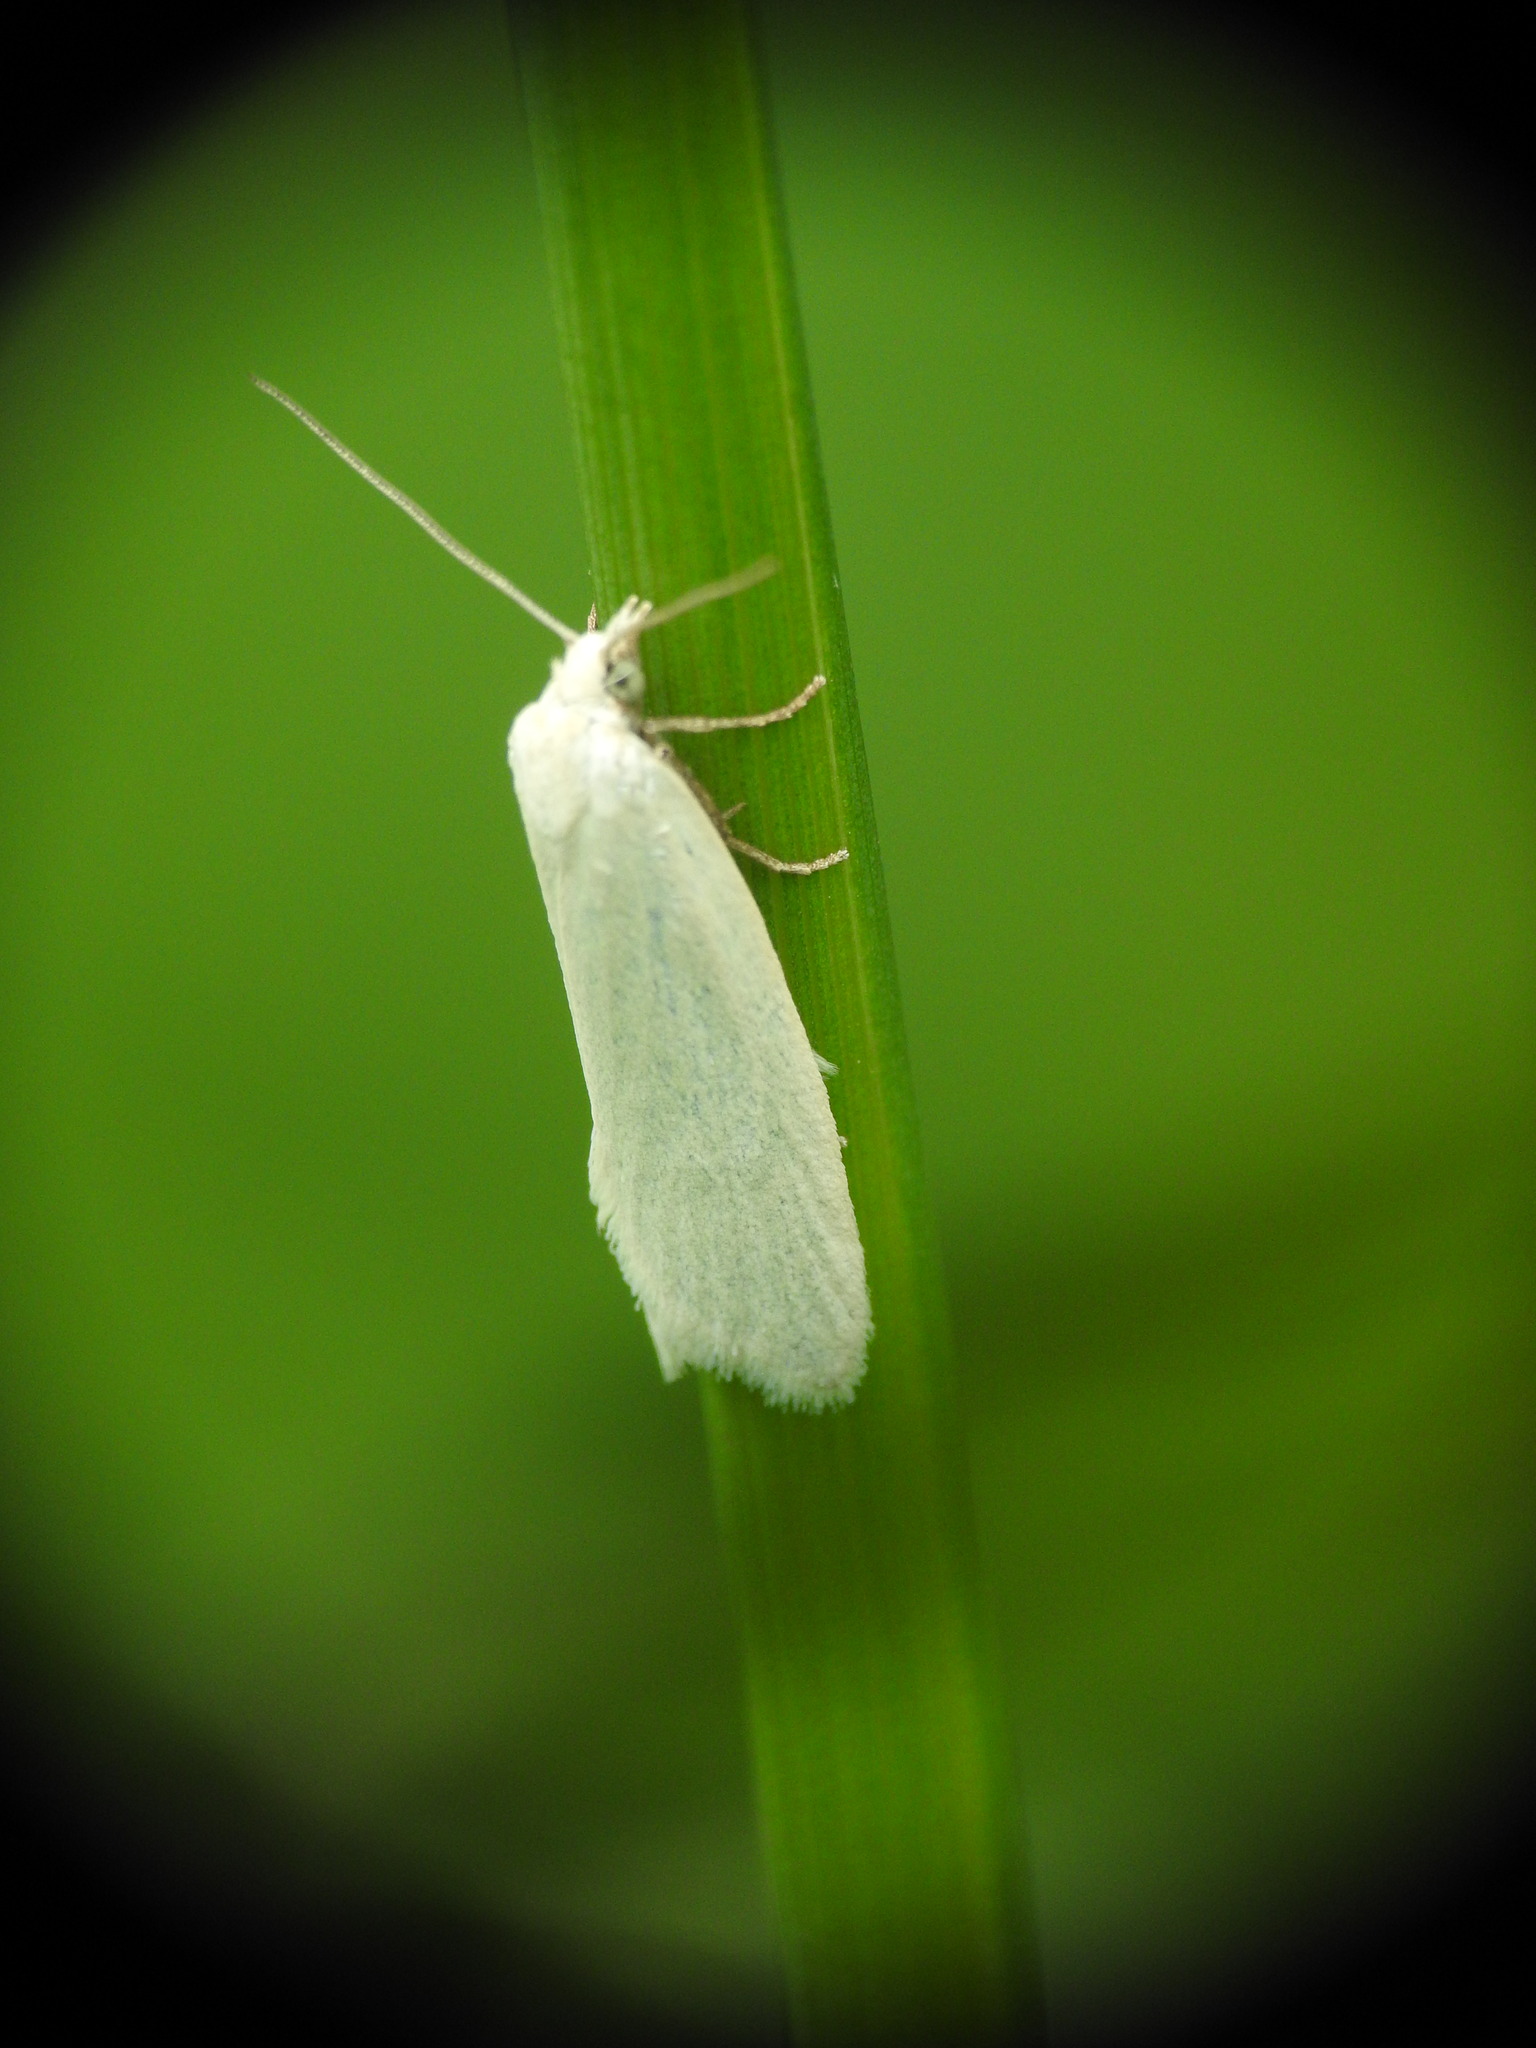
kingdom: Animalia
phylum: Arthropoda
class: Insecta
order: Lepidoptera
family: Tortricidae
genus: Eana
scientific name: Eana argentana
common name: Silver shade
